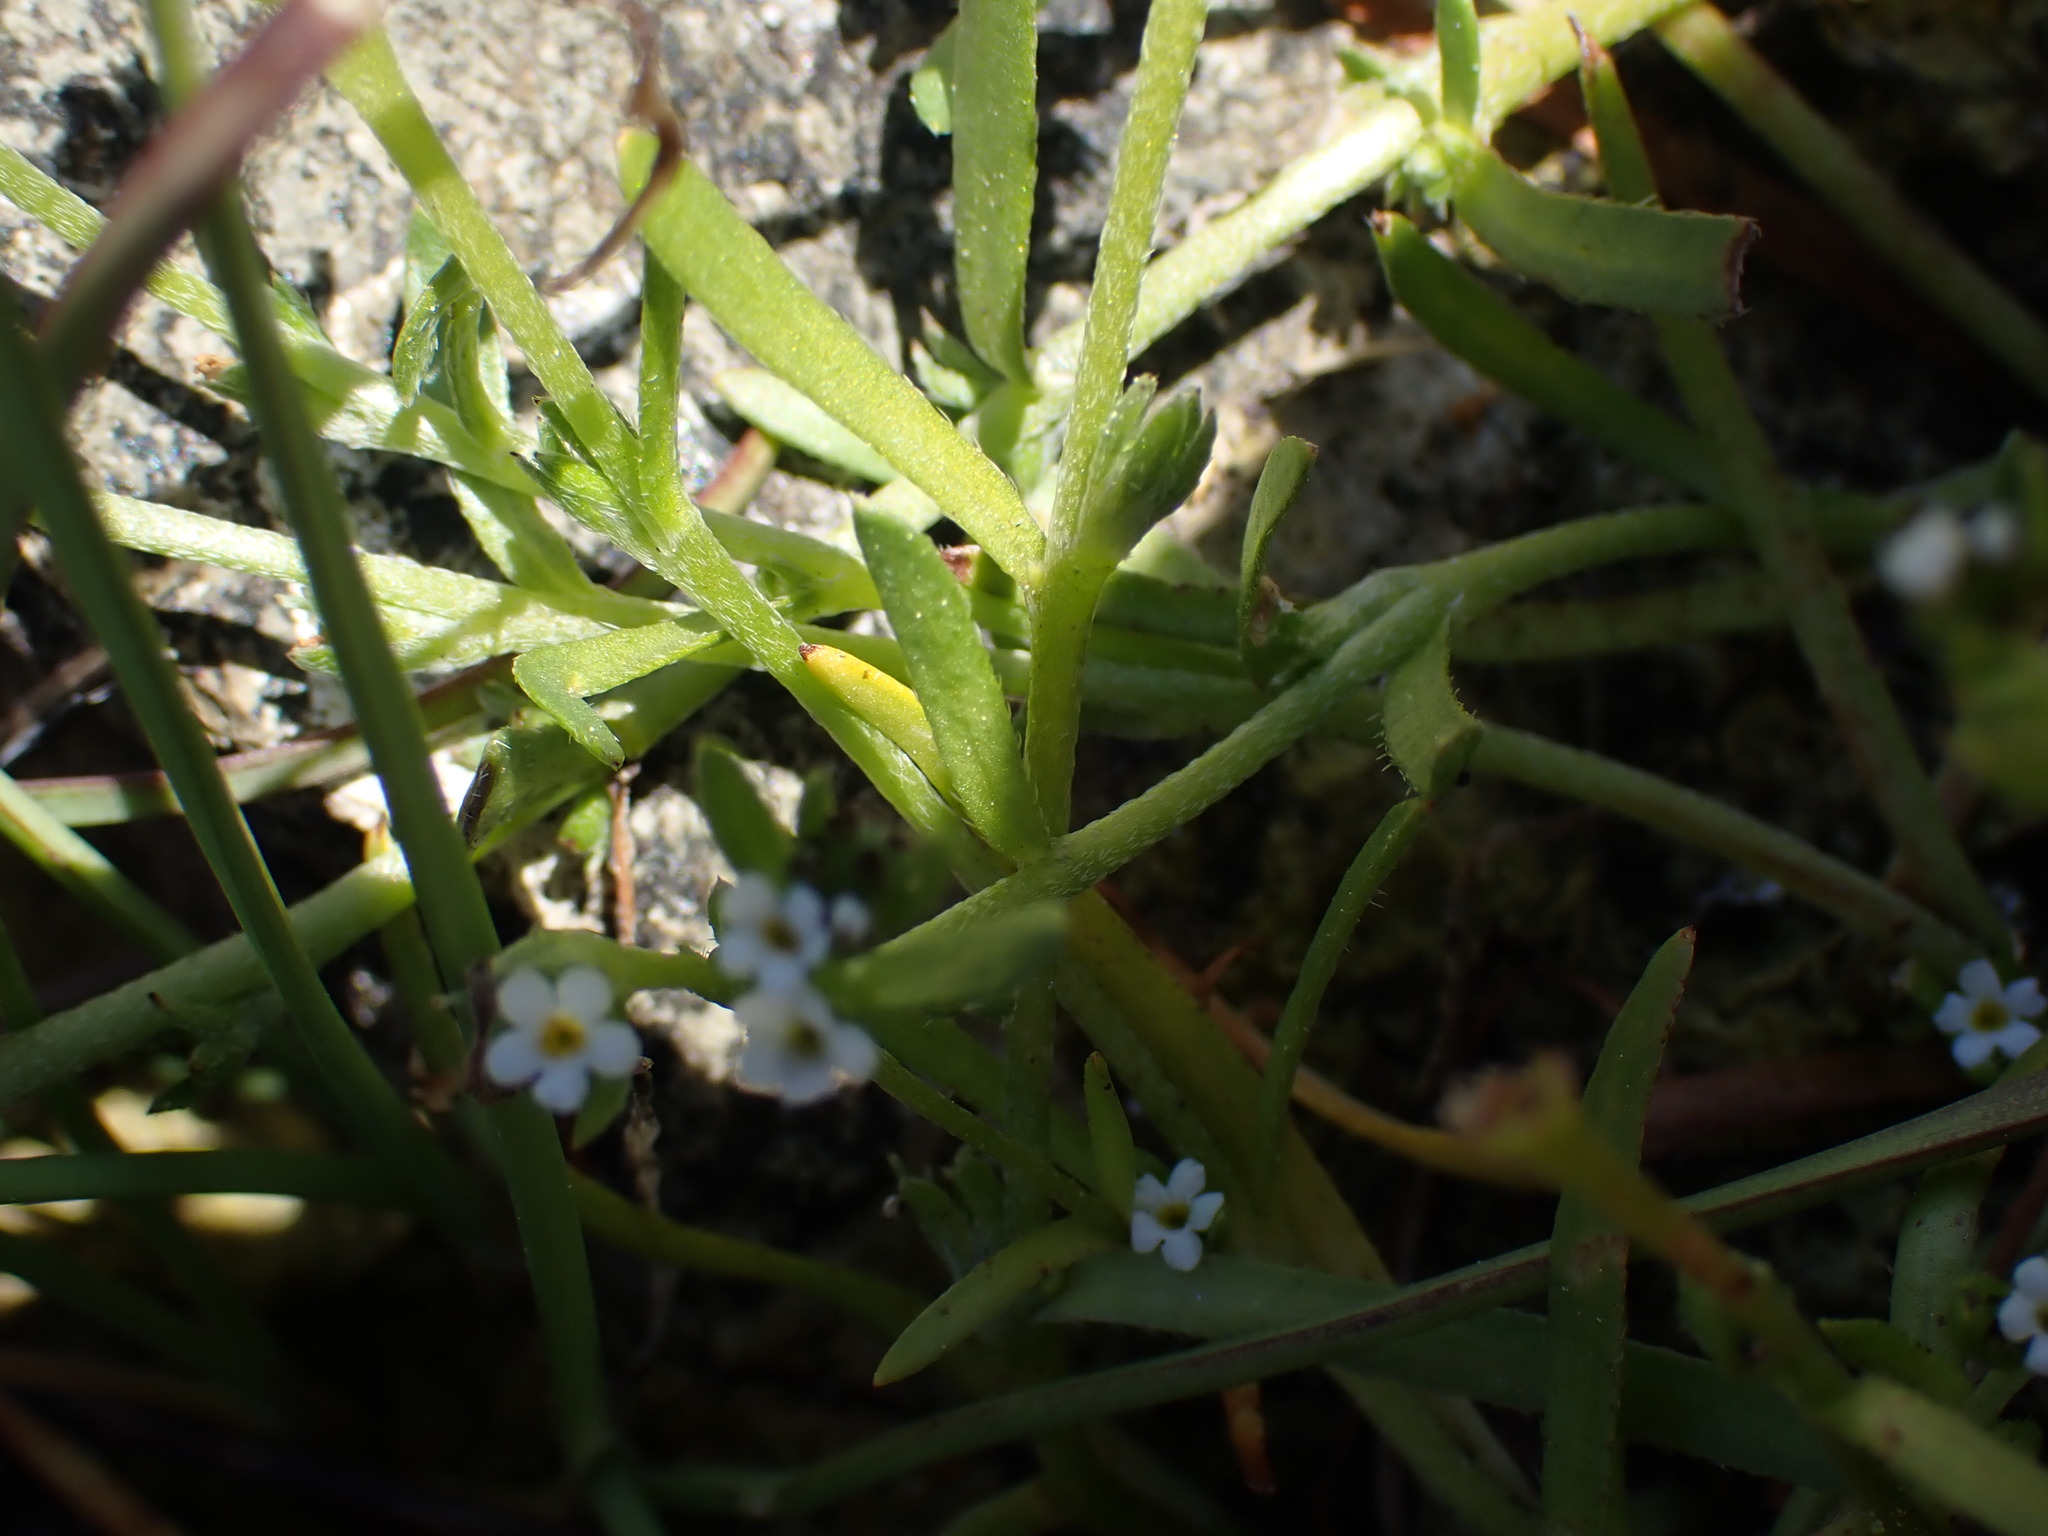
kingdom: Plantae
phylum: Tracheophyta
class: Magnoliopsida
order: Boraginales
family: Boraginaceae
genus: Plagiobothrys
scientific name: Plagiobothrys scouleri
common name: White forget-me-not
